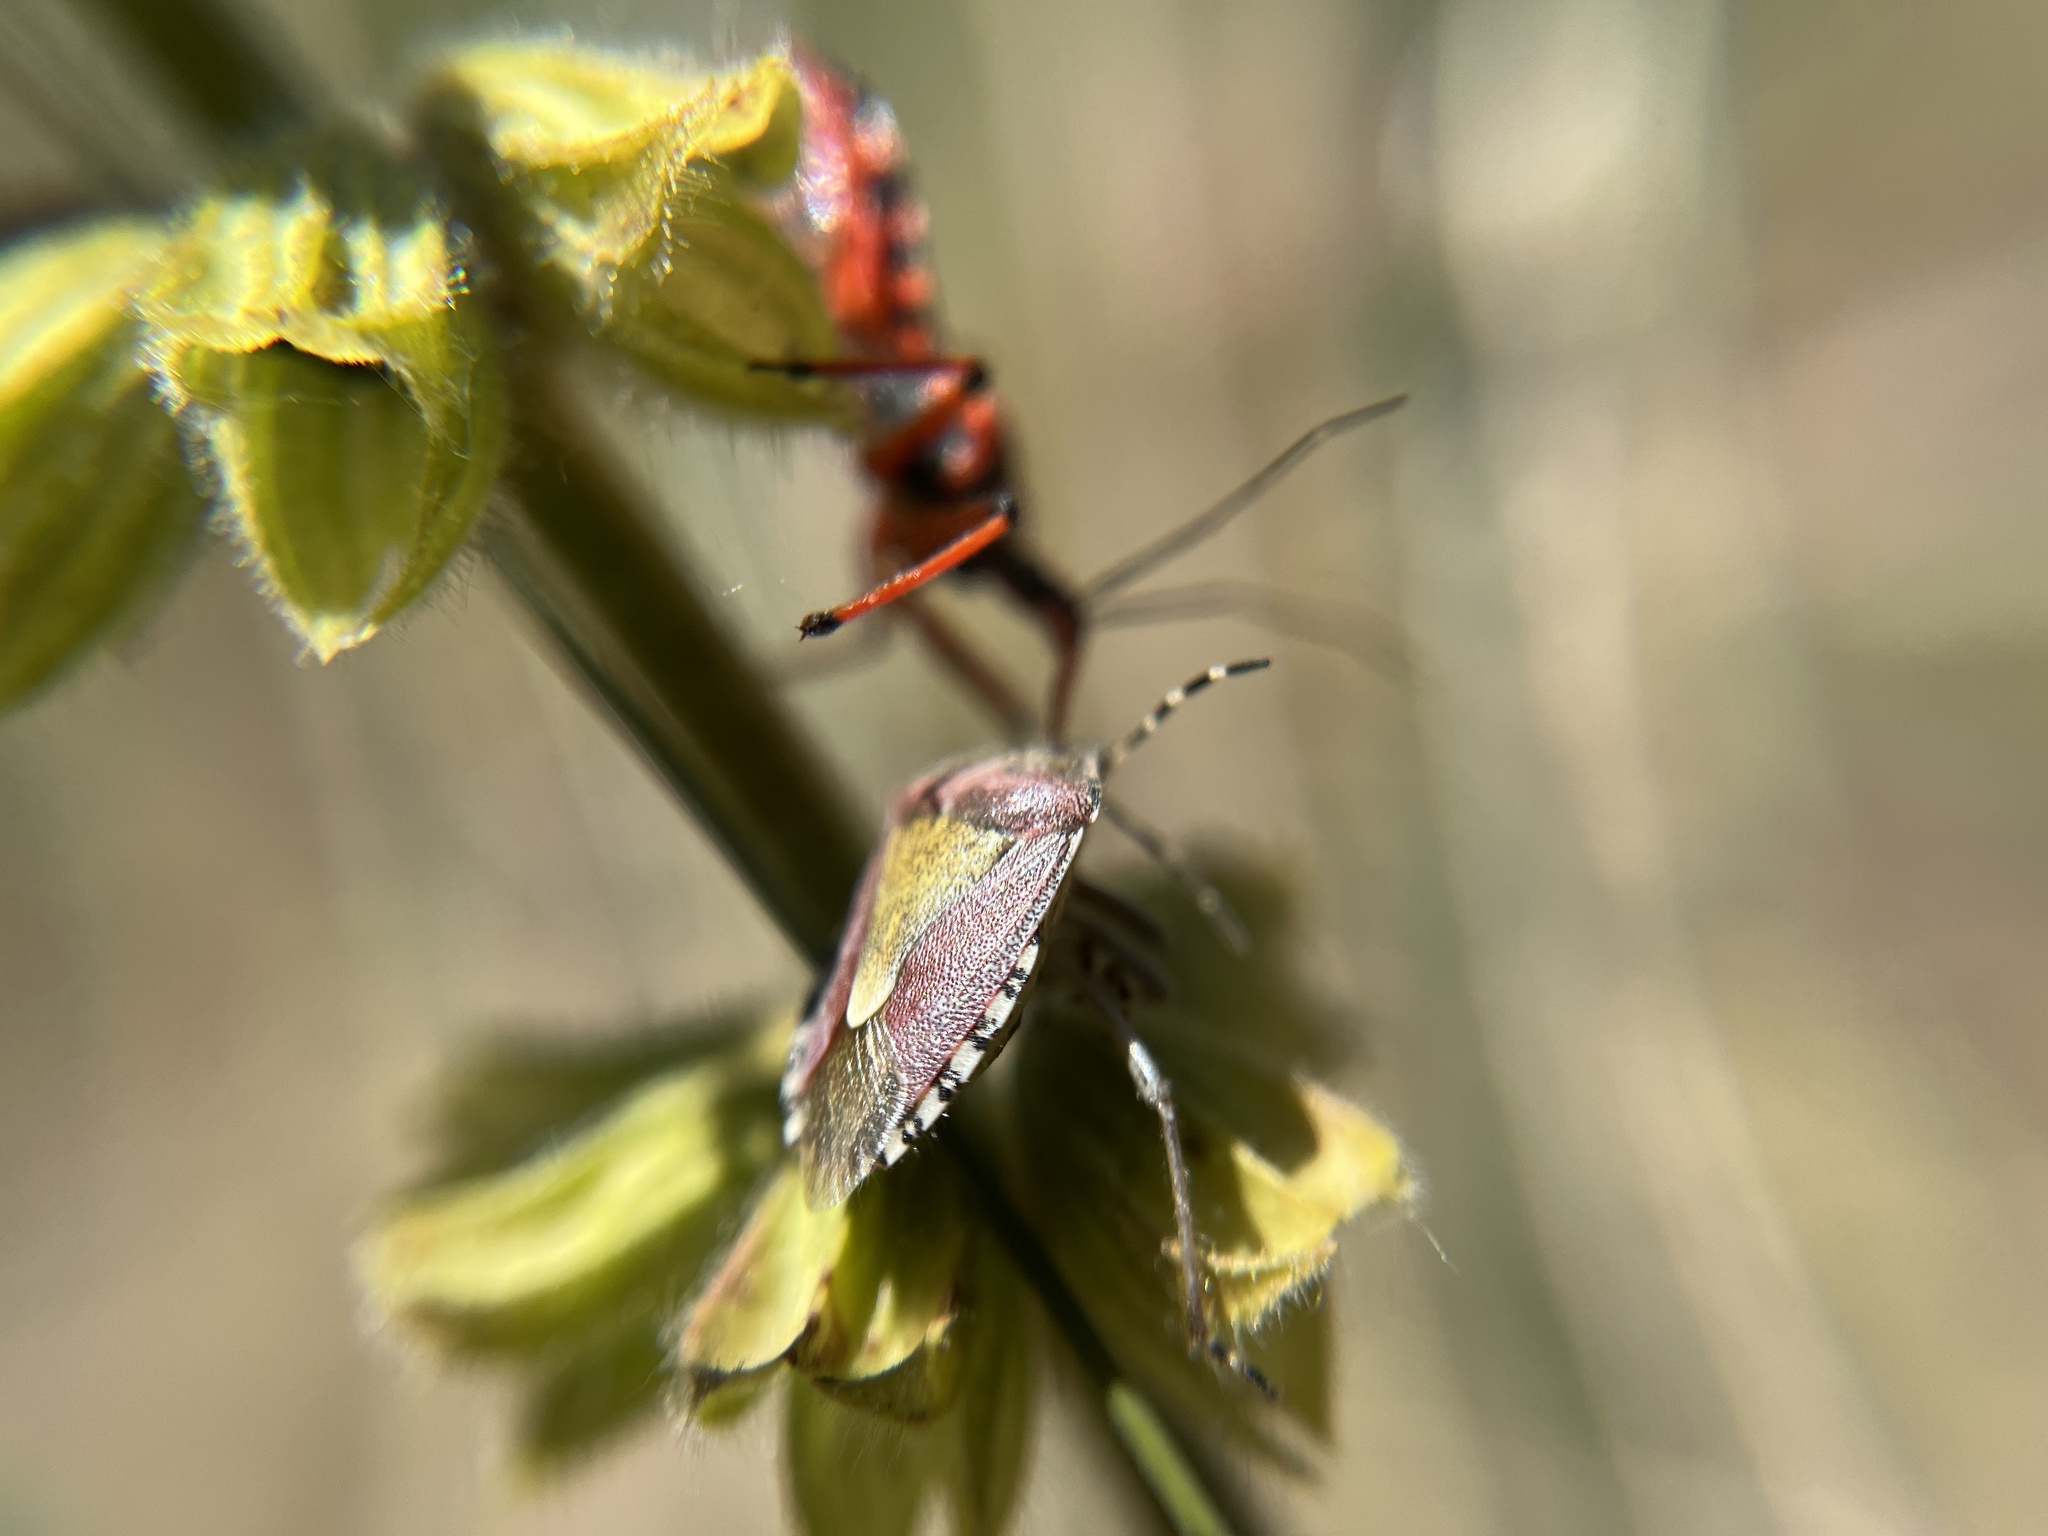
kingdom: Animalia
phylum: Arthropoda
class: Insecta
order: Hemiptera
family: Pentatomidae
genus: Dolycoris
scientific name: Dolycoris baccarum
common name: Sloe bug
